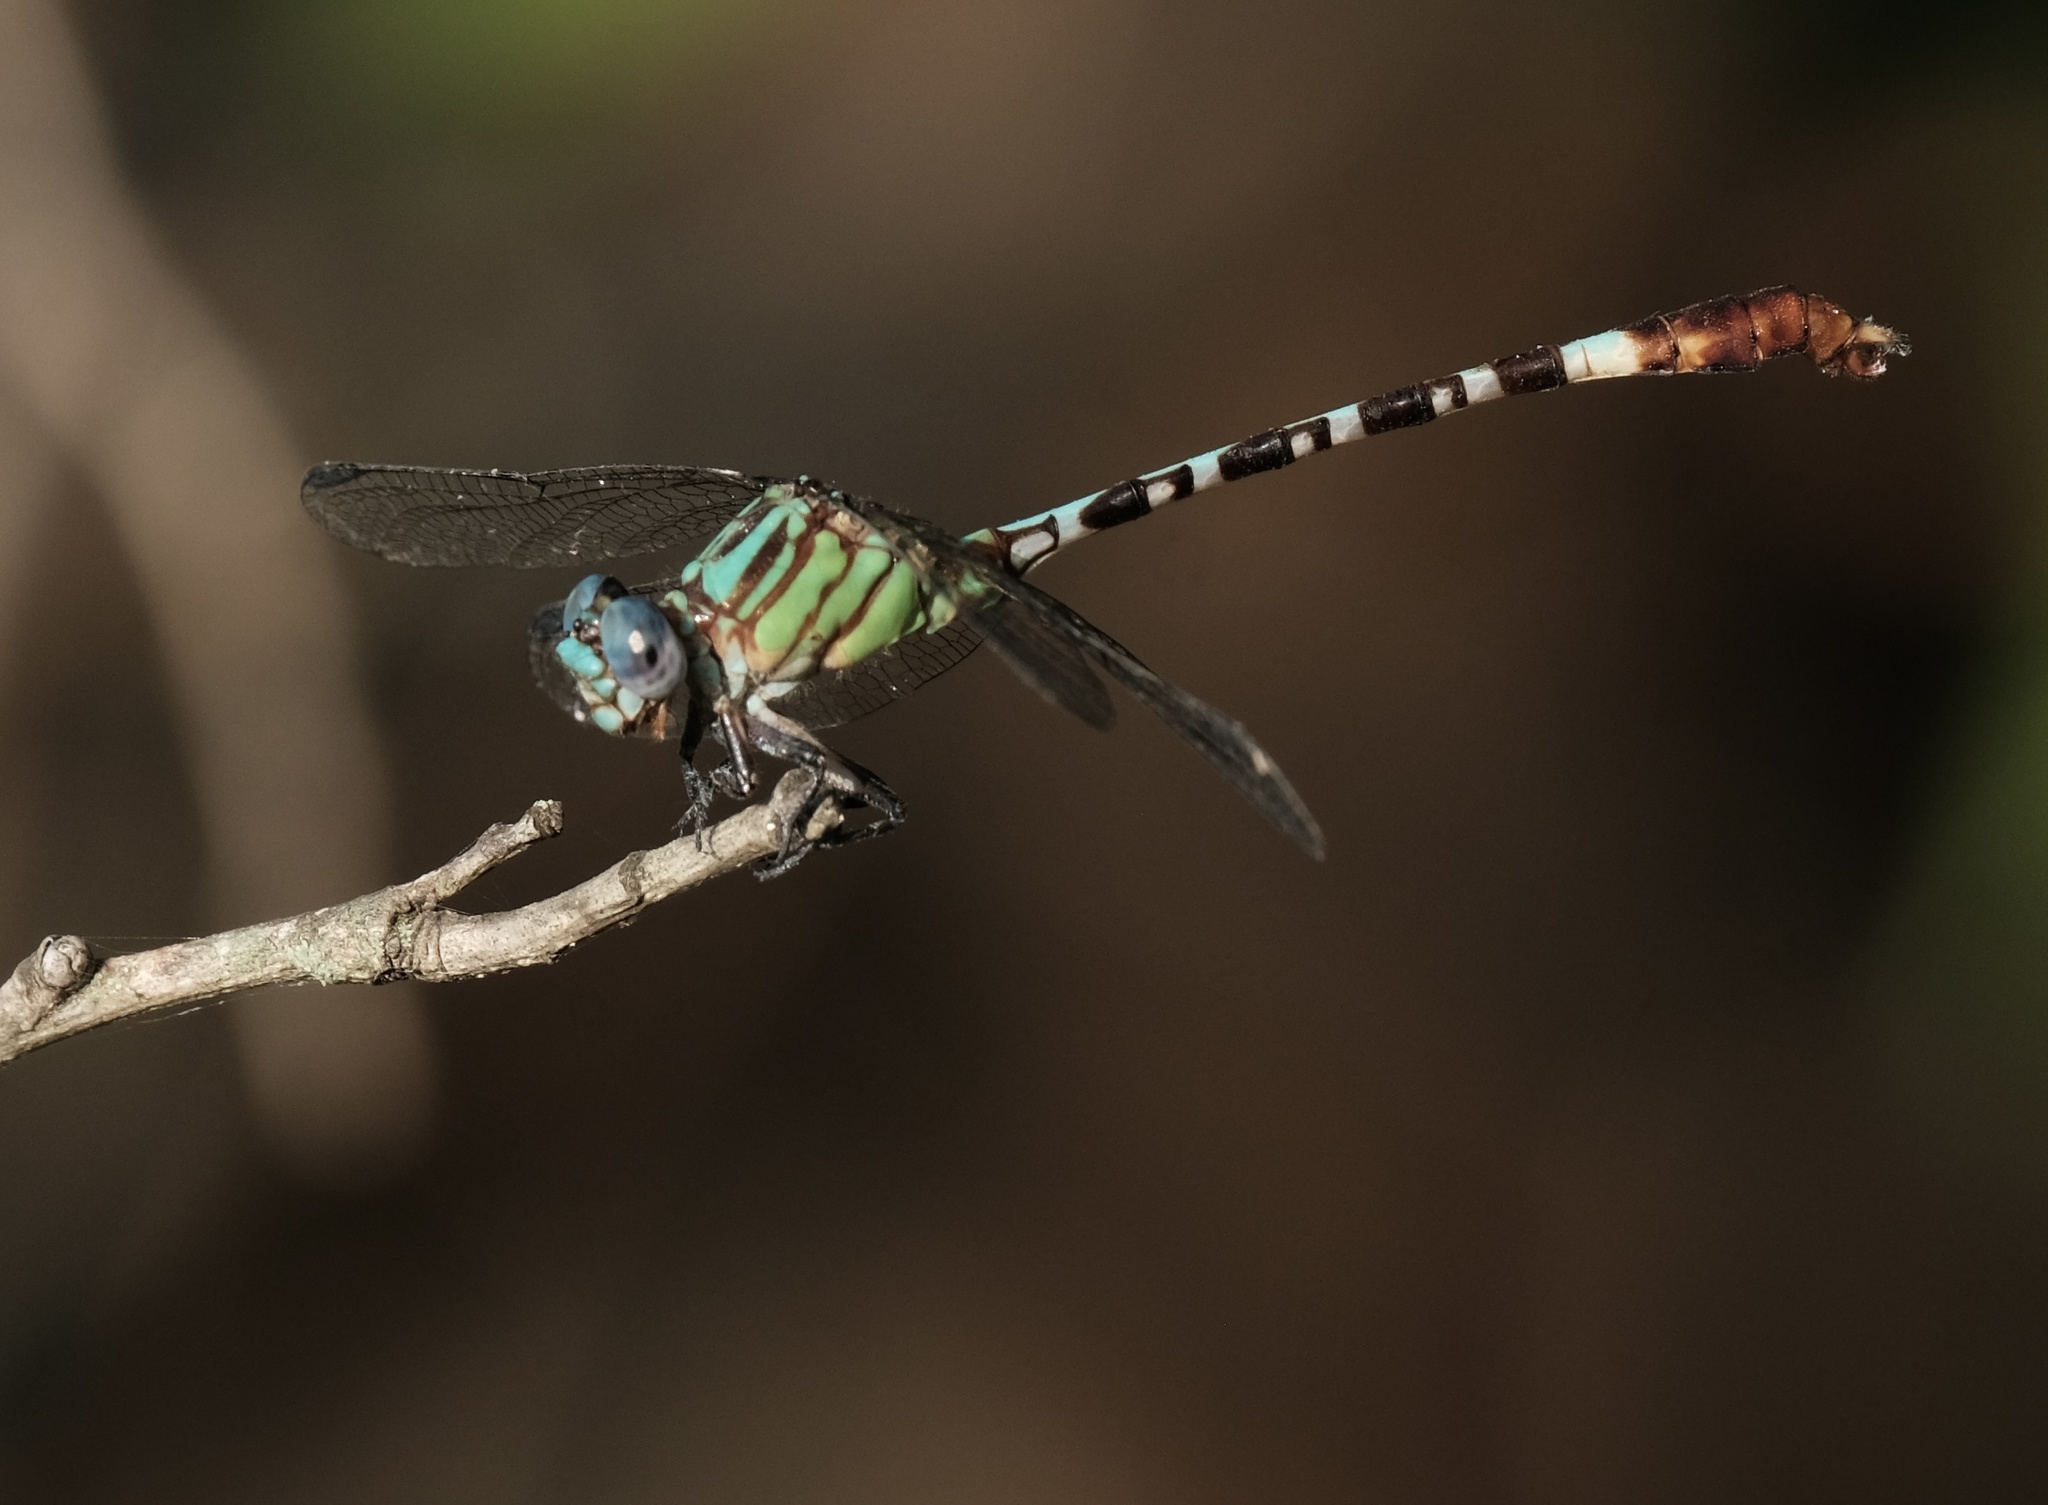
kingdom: Animalia
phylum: Arthropoda
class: Insecta
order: Odonata
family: Gomphidae
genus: Erpetogomphus
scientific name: Erpetogomphus eutainia
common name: Blue-faced ringtail
